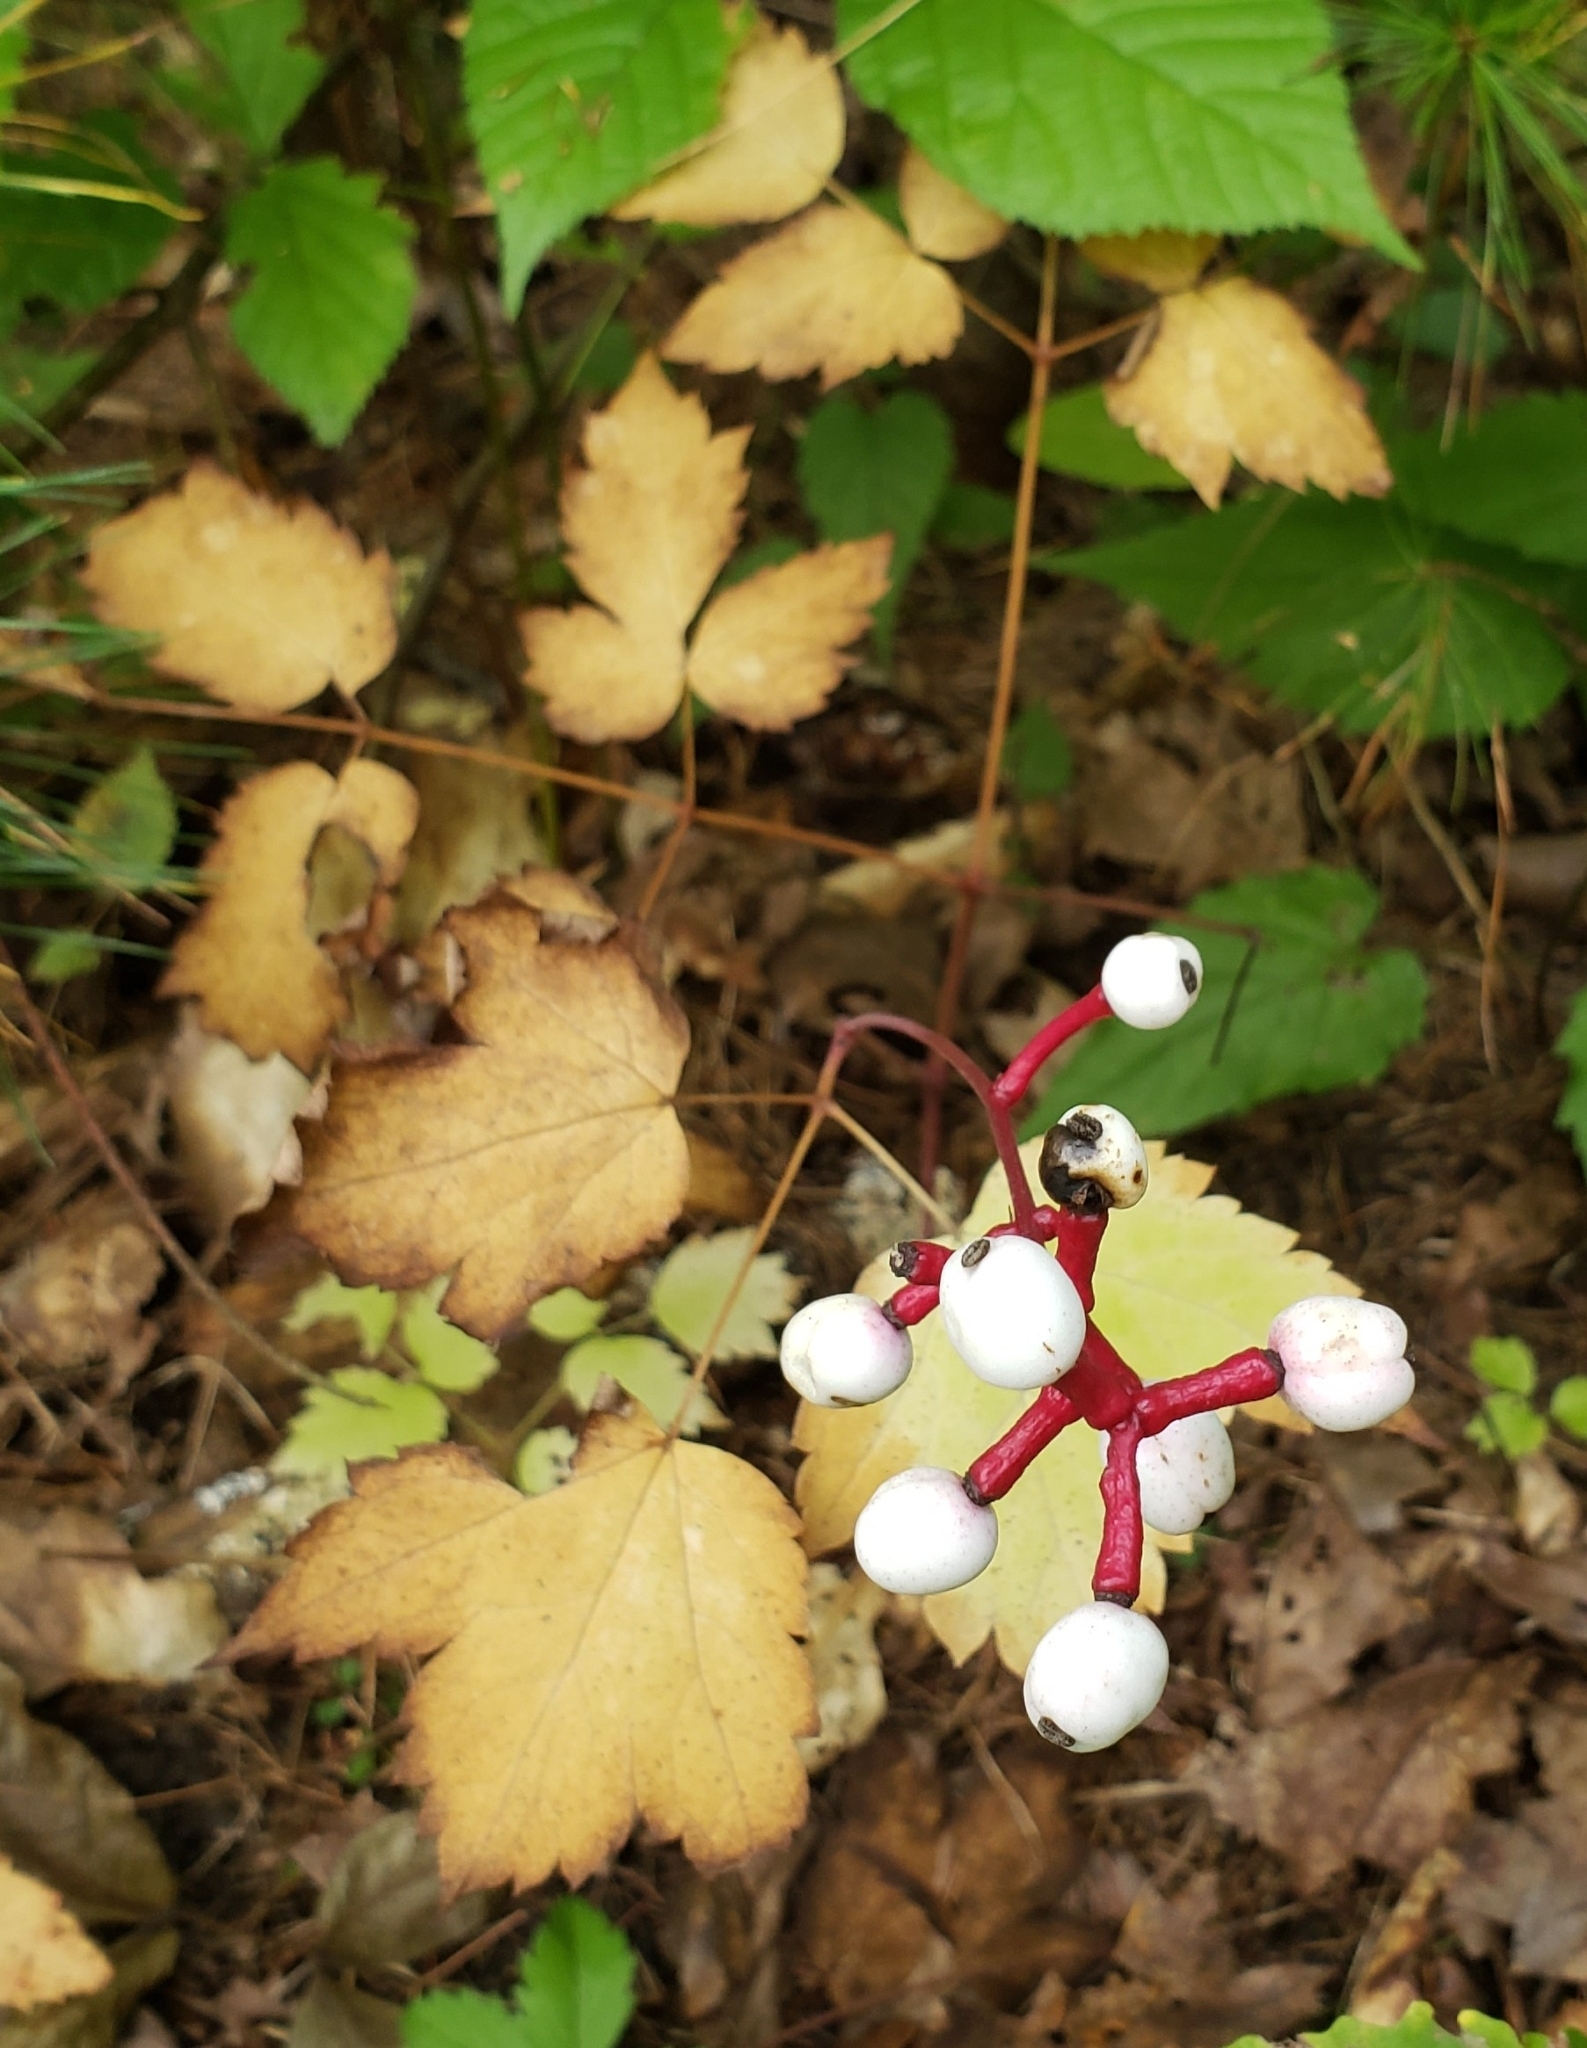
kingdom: Plantae
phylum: Tracheophyta
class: Magnoliopsida
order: Ranunculales
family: Ranunculaceae
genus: Actaea
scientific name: Actaea pachypoda
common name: Doll's-eyes
